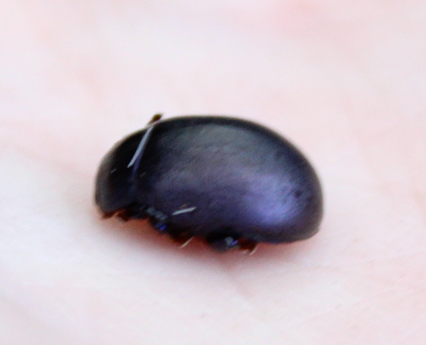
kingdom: Animalia
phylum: Arthropoda
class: Insecta
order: Coleoptera
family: Chrysomelidae
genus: Chrysolina
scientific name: Chrysolina sturmi
